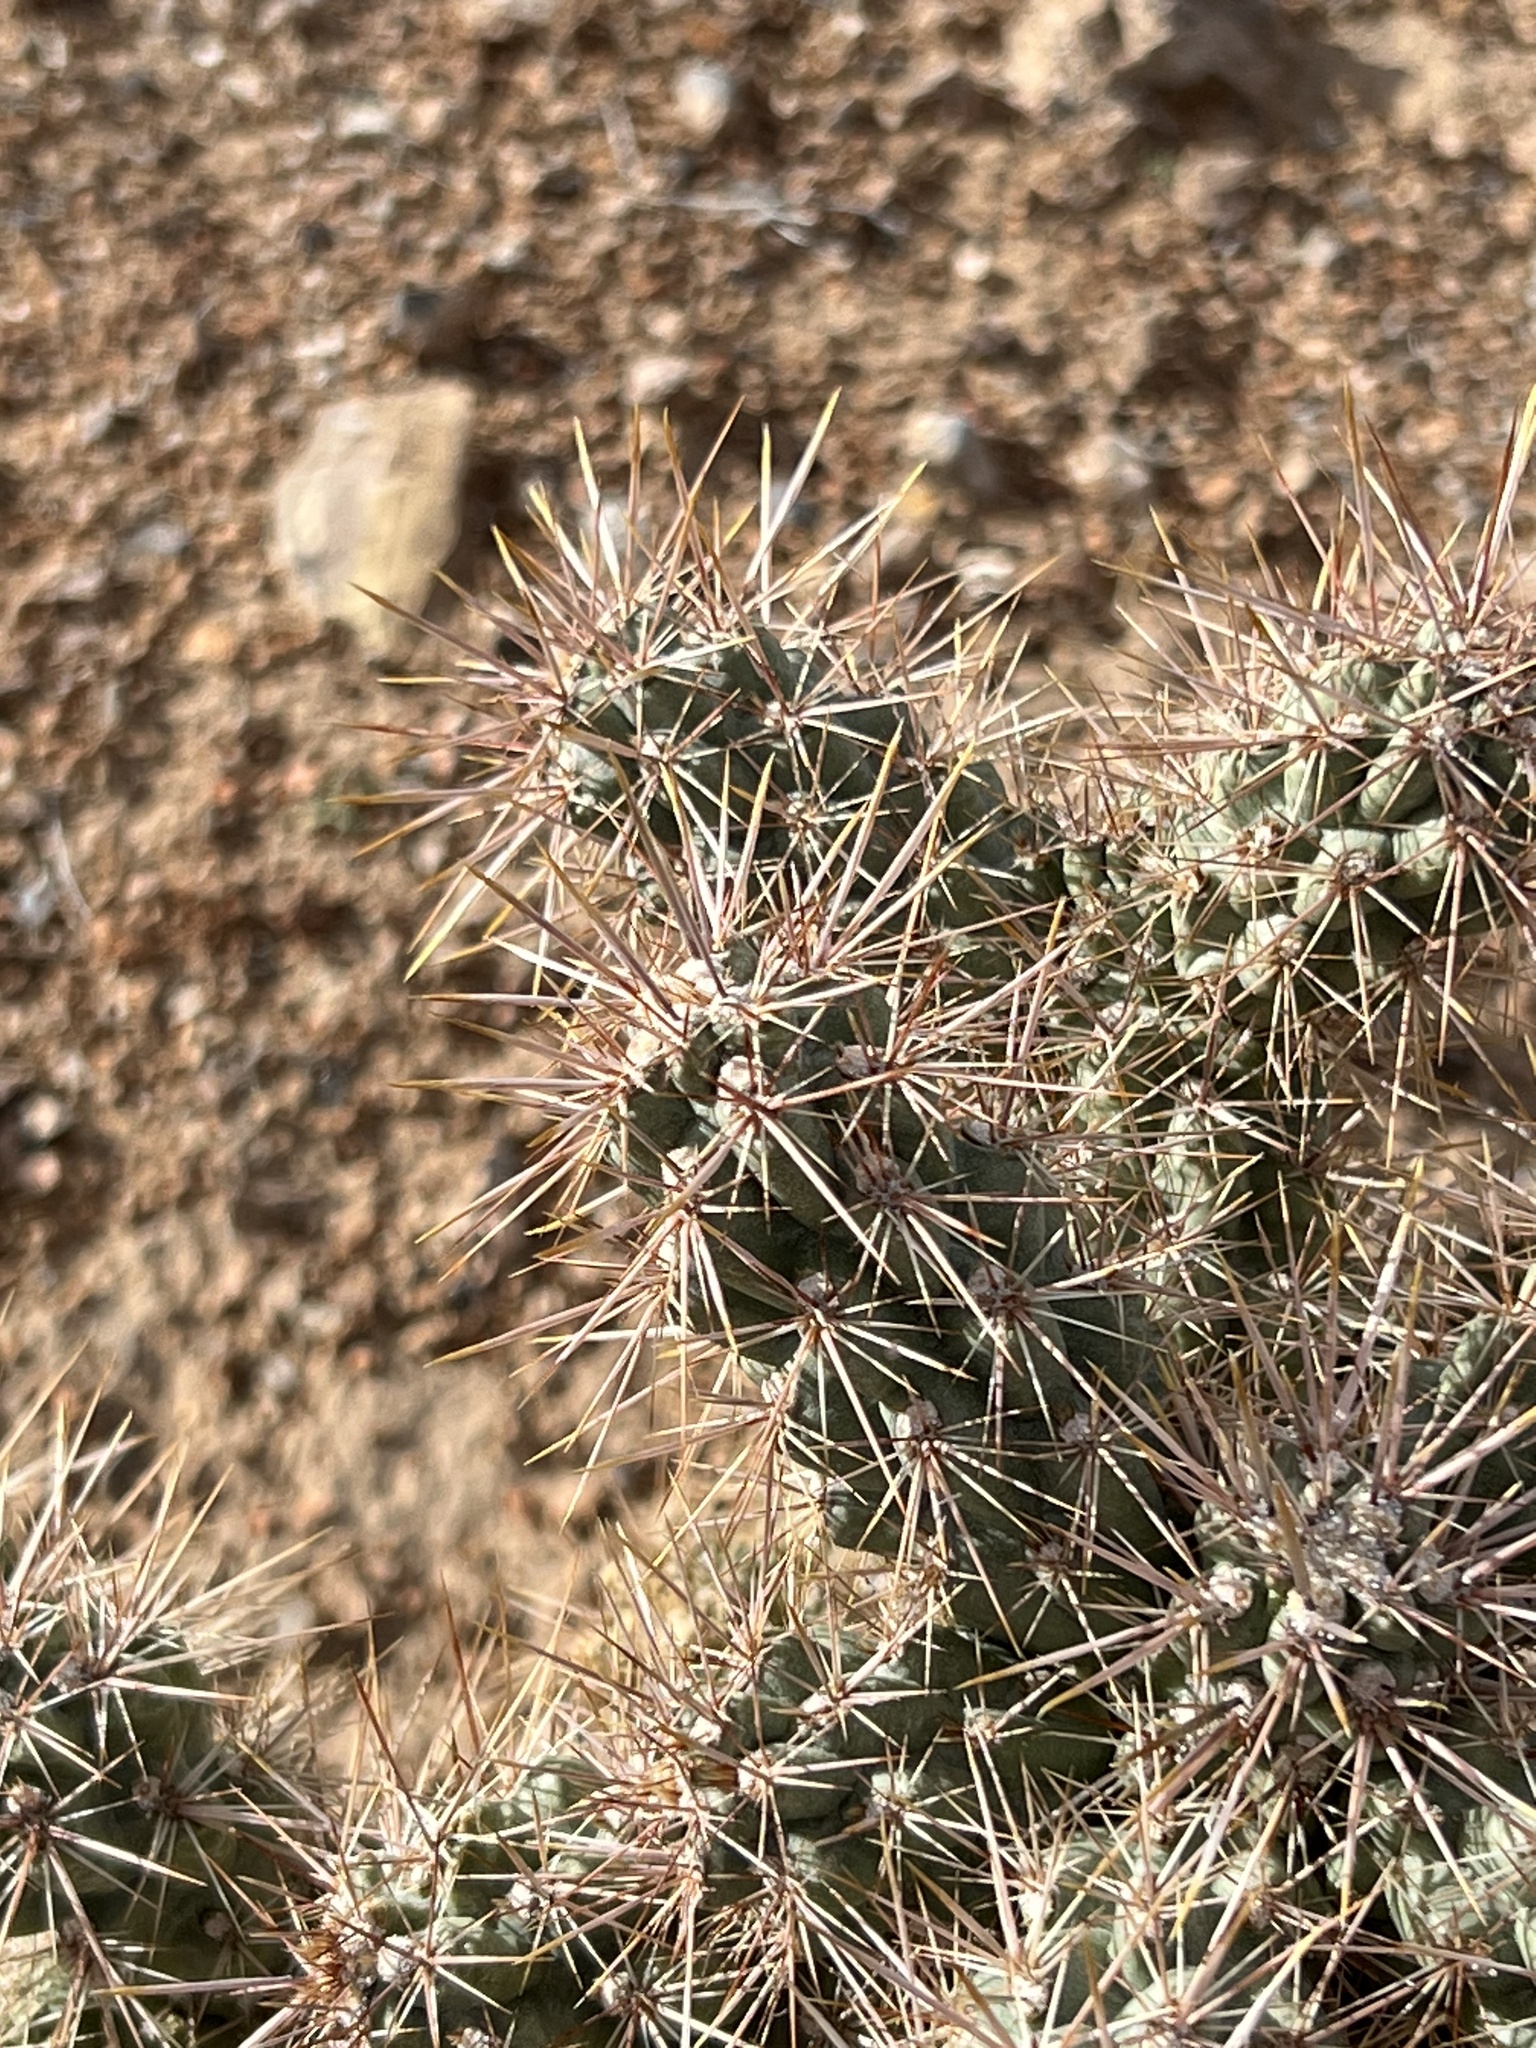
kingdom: Plantae
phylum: Tracheophyta
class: Magnoliopsida
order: Caryophyllales
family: Cactaceae
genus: Cylindropuntia
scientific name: Cylindropuntia echinocarpa
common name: Ground cholla
